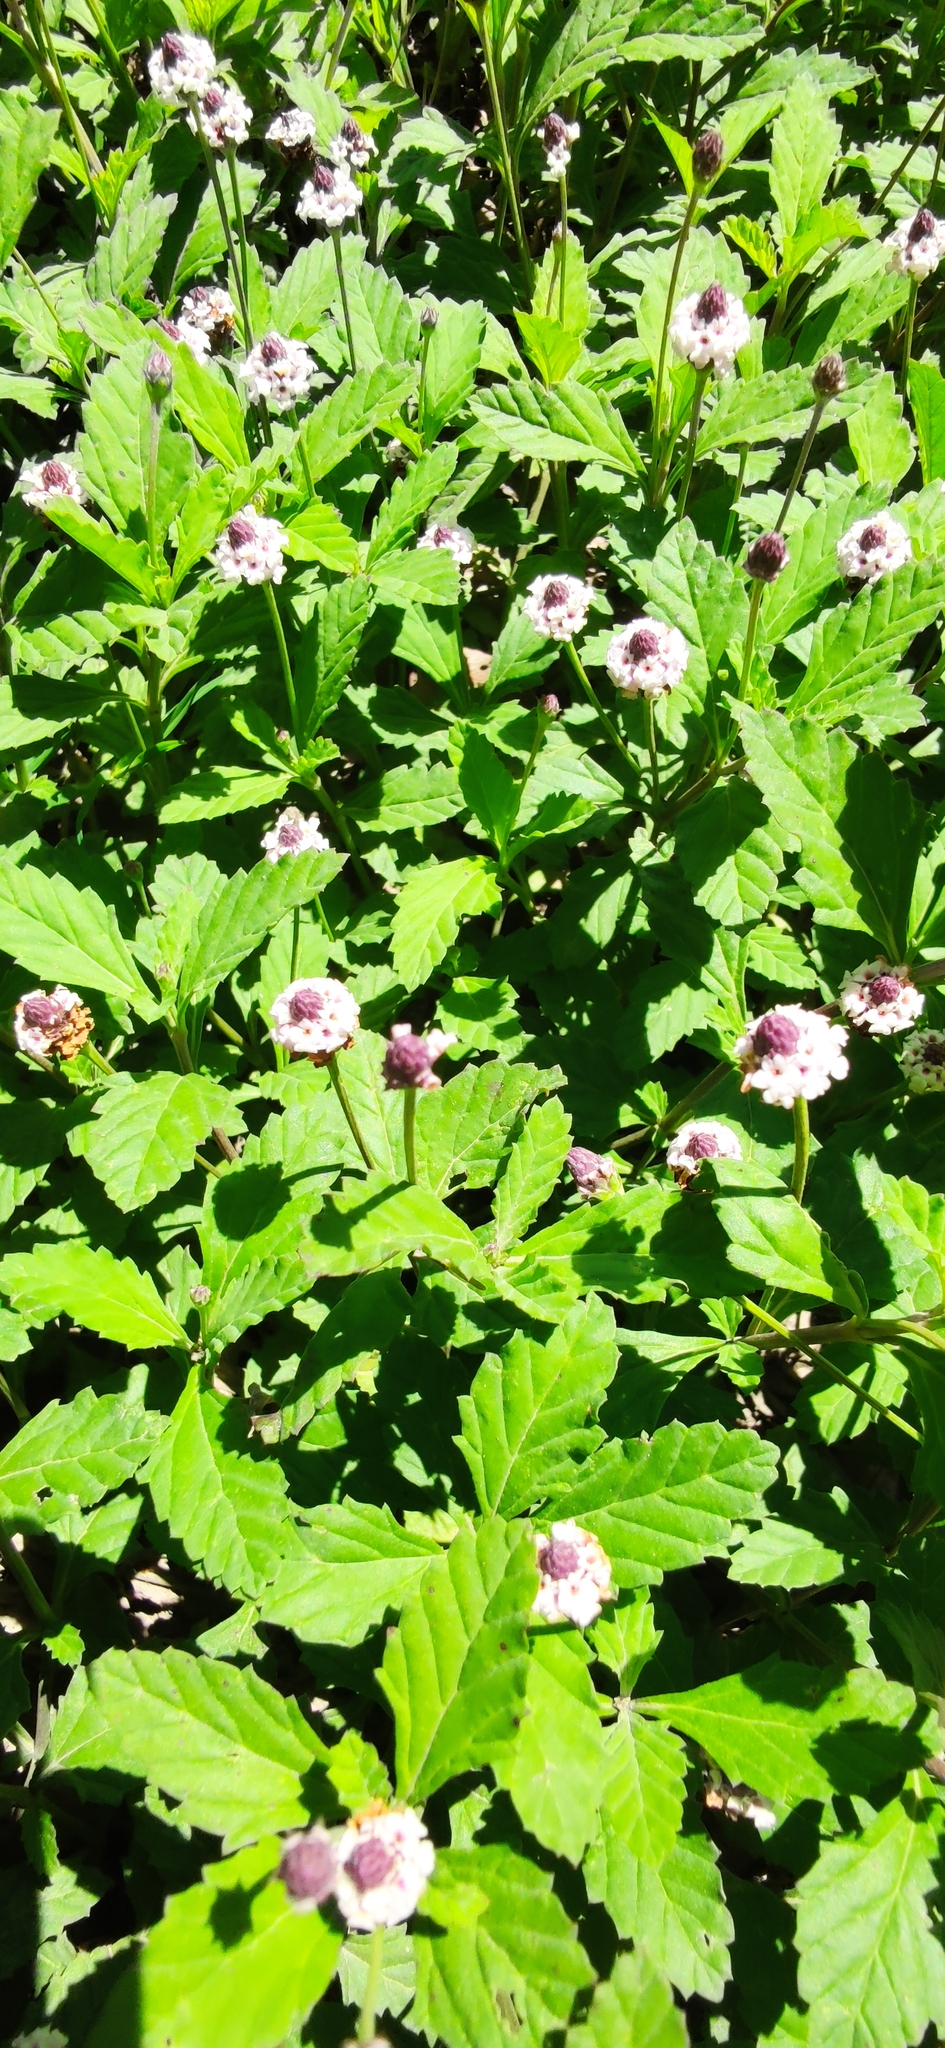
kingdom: Plantae
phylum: Tracheophyta
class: Magnoliopsida
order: Lamiales
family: Verbenaceae
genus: Phyla
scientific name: Phyla nodiflora
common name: Frogfruit
